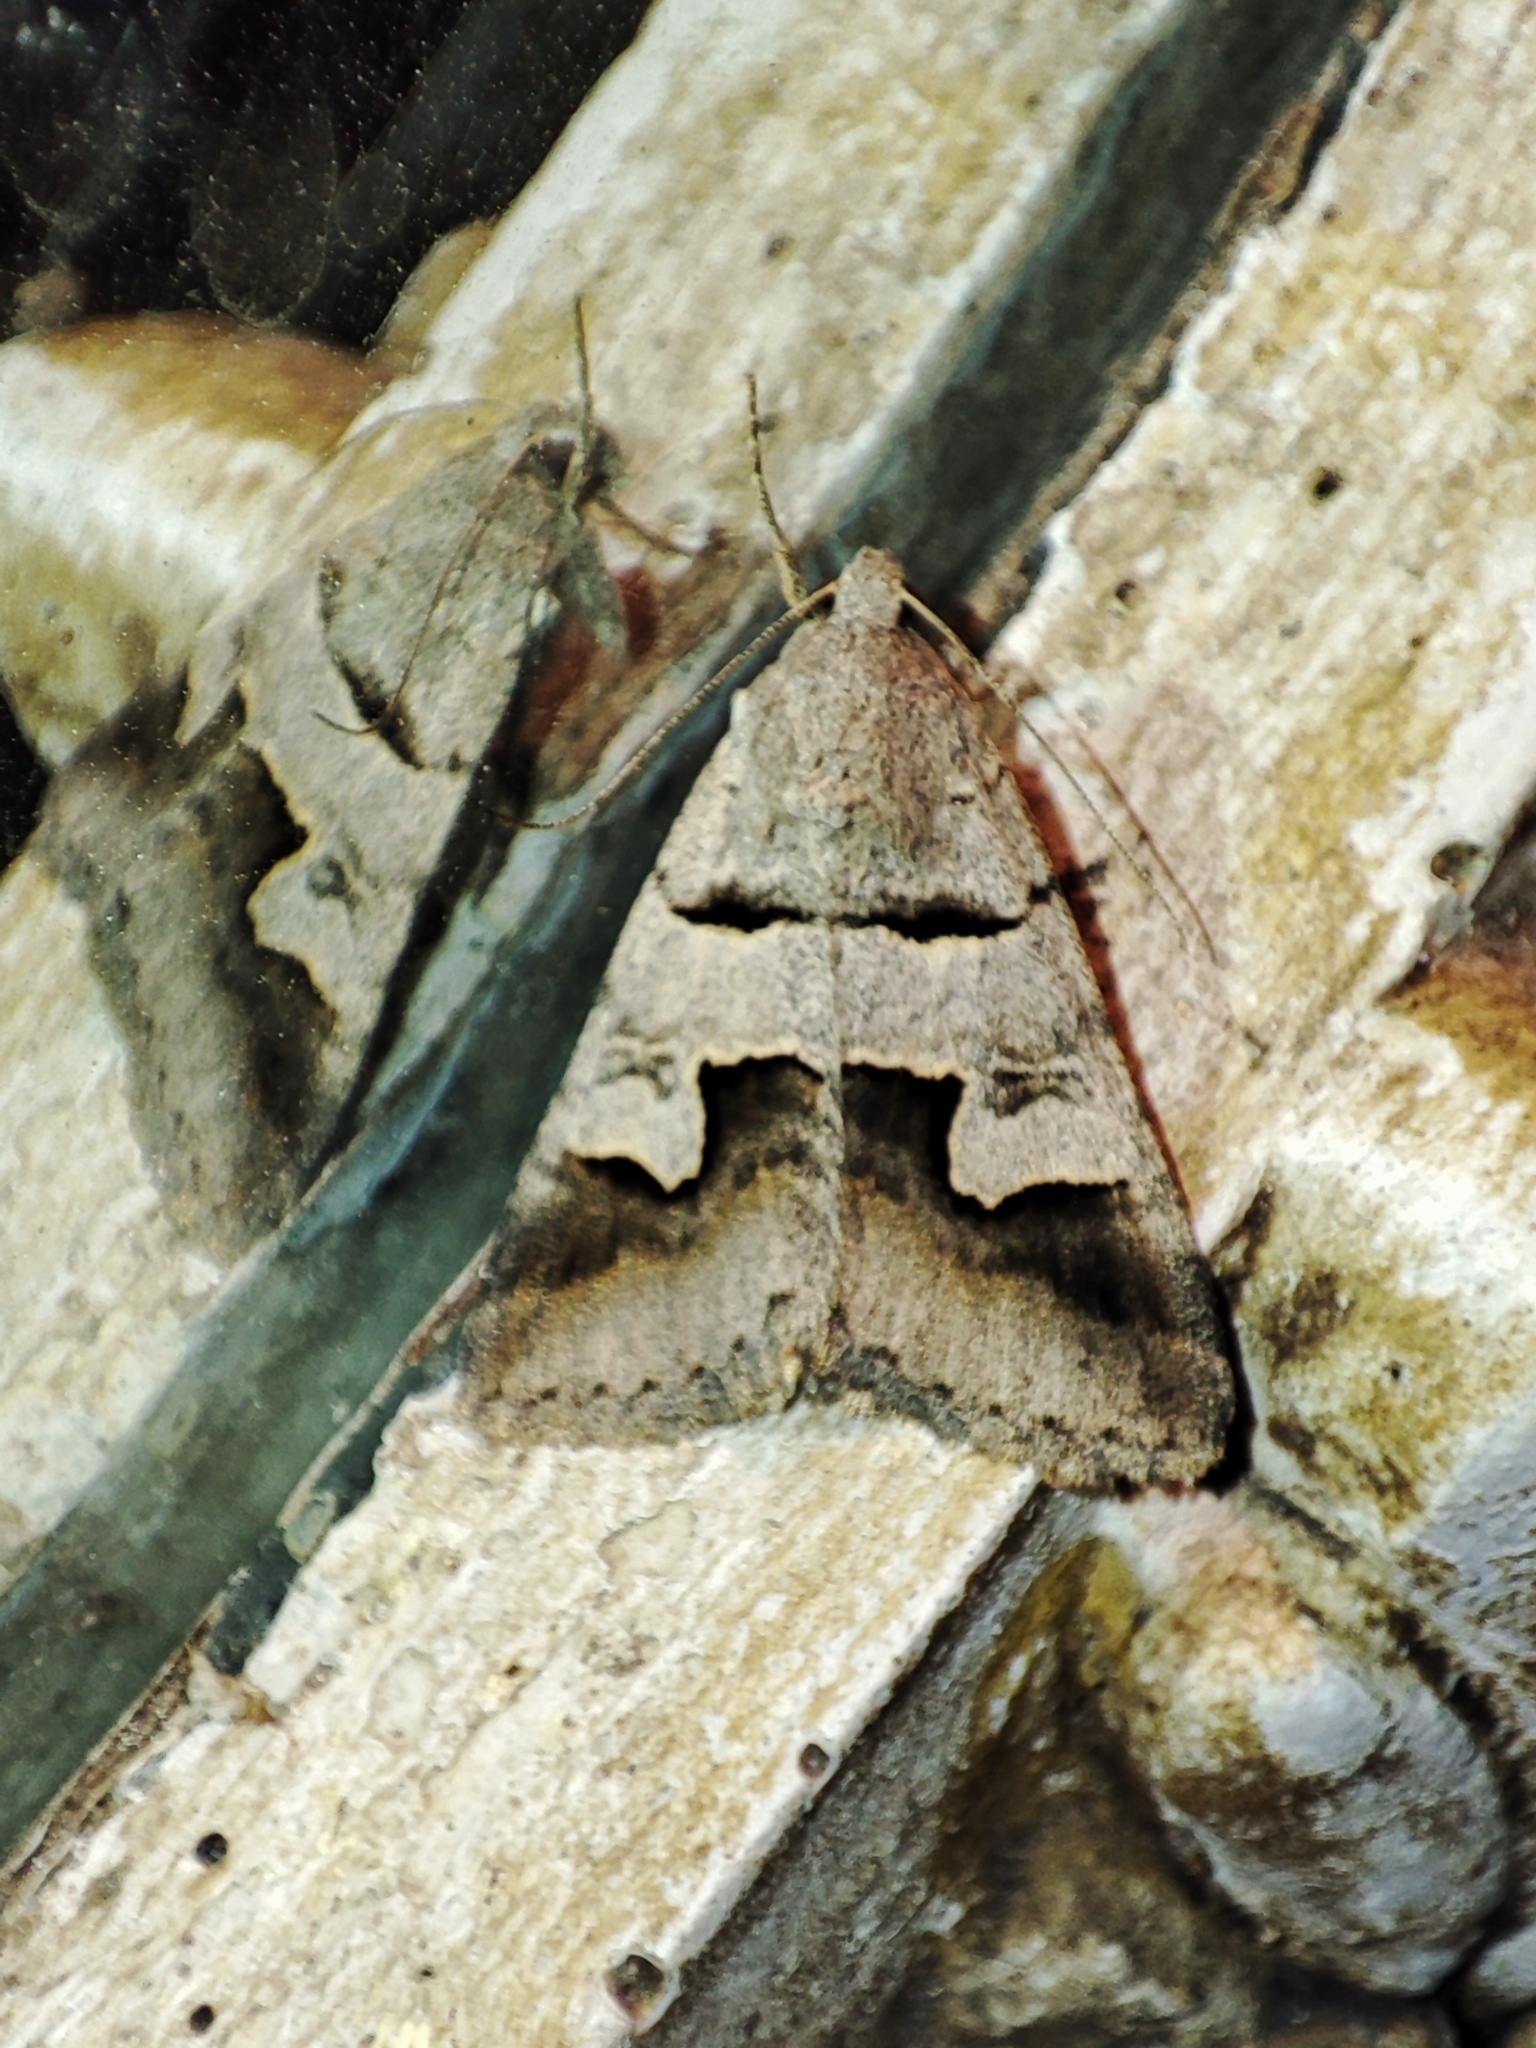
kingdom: Animalia
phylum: Arthropoda
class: Insecta
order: Lepidoptera
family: Erebidae
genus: Drasteria
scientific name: Drasteria caucasica
